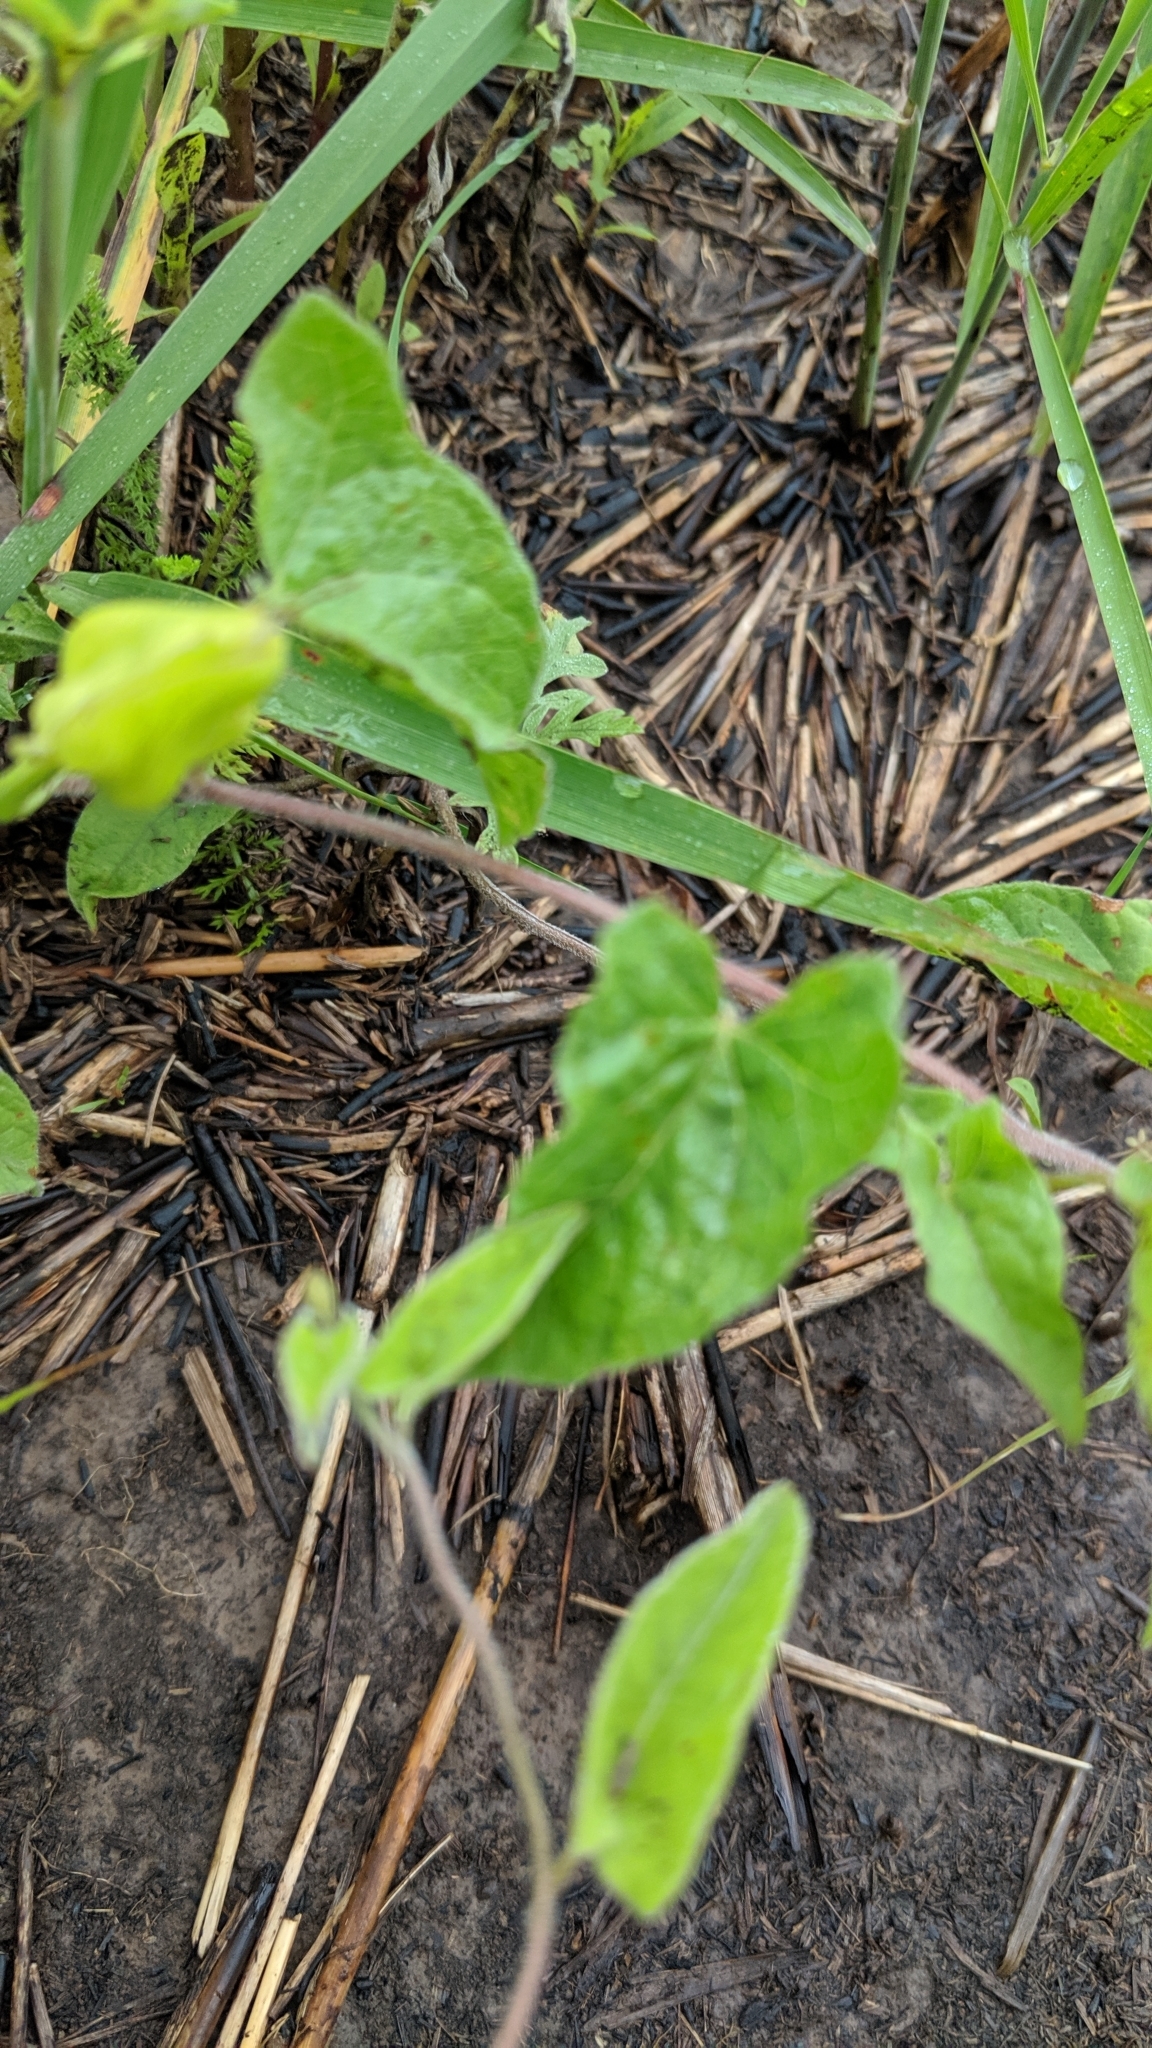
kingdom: Plantae
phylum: Tracheophyta
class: Magnoliopsida
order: Solanales
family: Convolvulaceae
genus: Calystegia
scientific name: Calystegia sepium
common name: Hedge bindweed
